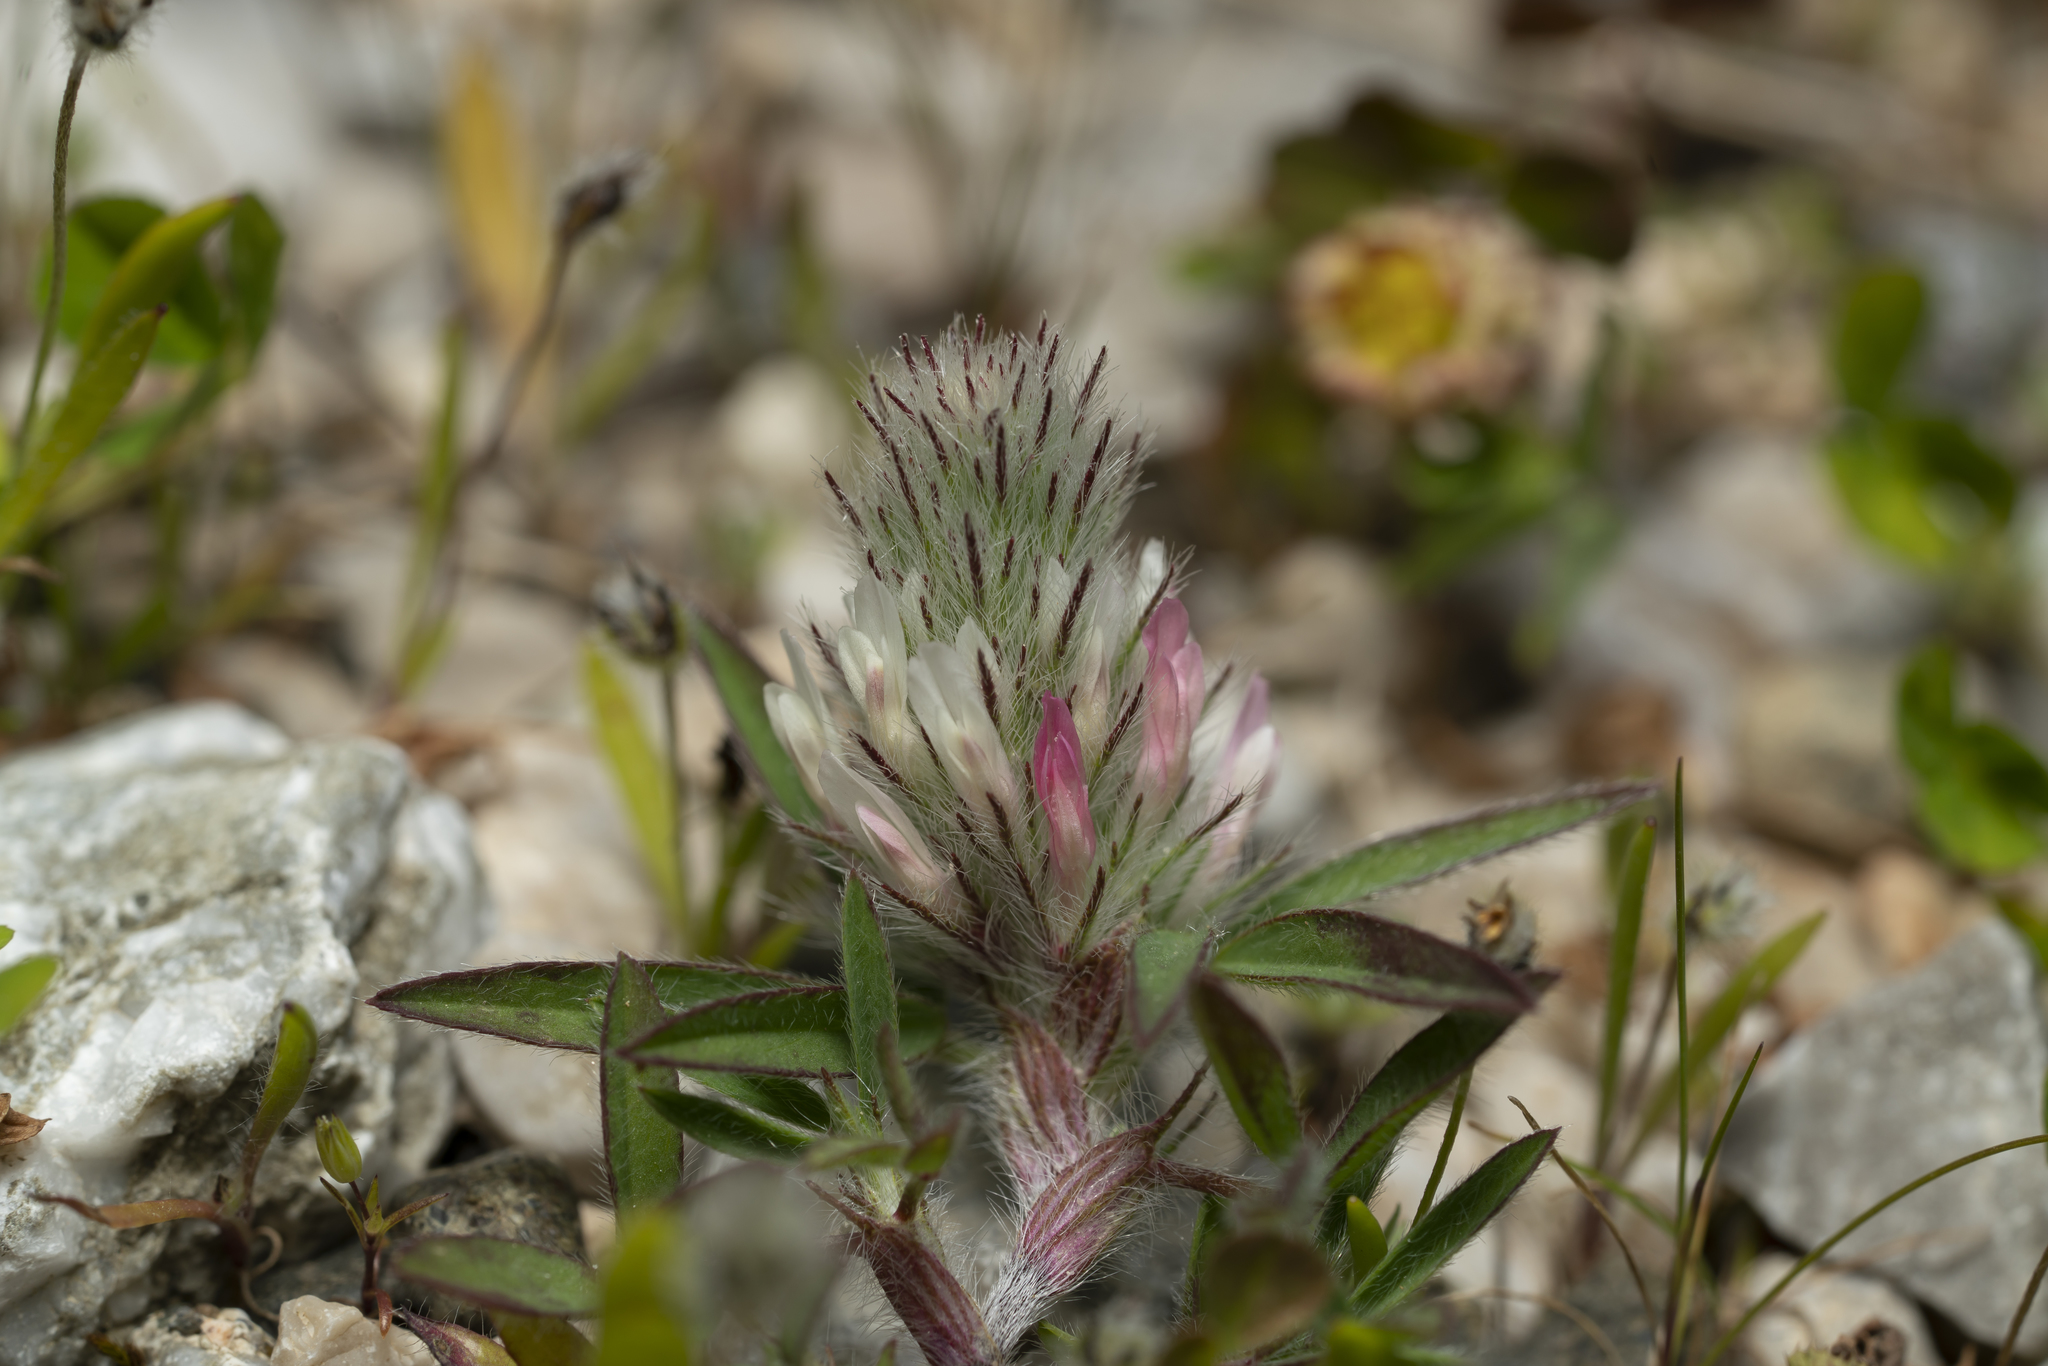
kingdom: Plantae
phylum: Tracheophyta
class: Magnoliopsida
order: Fabales
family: Fabaceae
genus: Trifolium
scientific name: Trifolium infamia-ponertii
